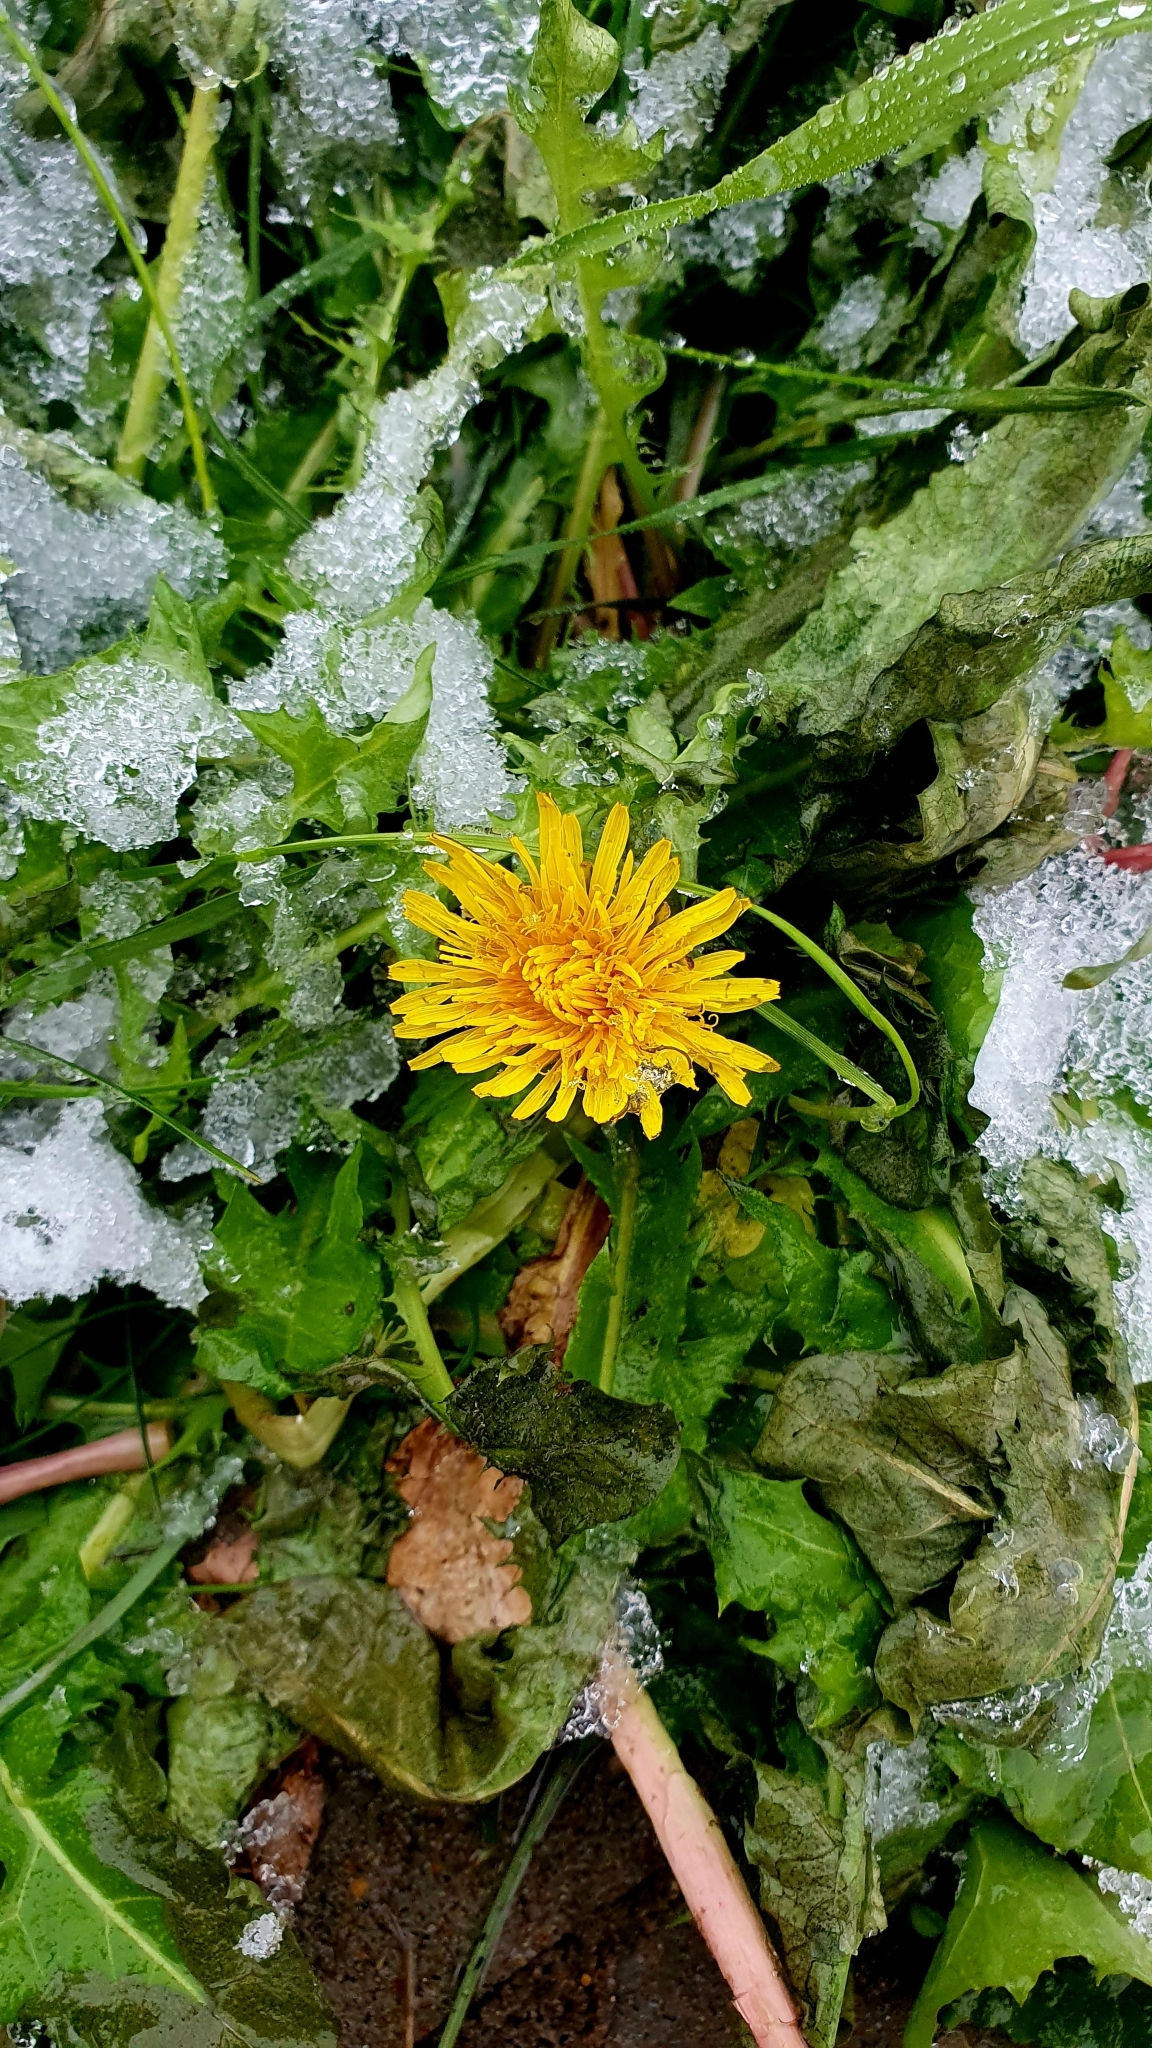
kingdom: Plantae
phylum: Tracheophyta
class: Magnoliopsida
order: Asterales
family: Asteraceae
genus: Taraxacum
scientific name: Taraxacum officinale
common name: Common dandelion
